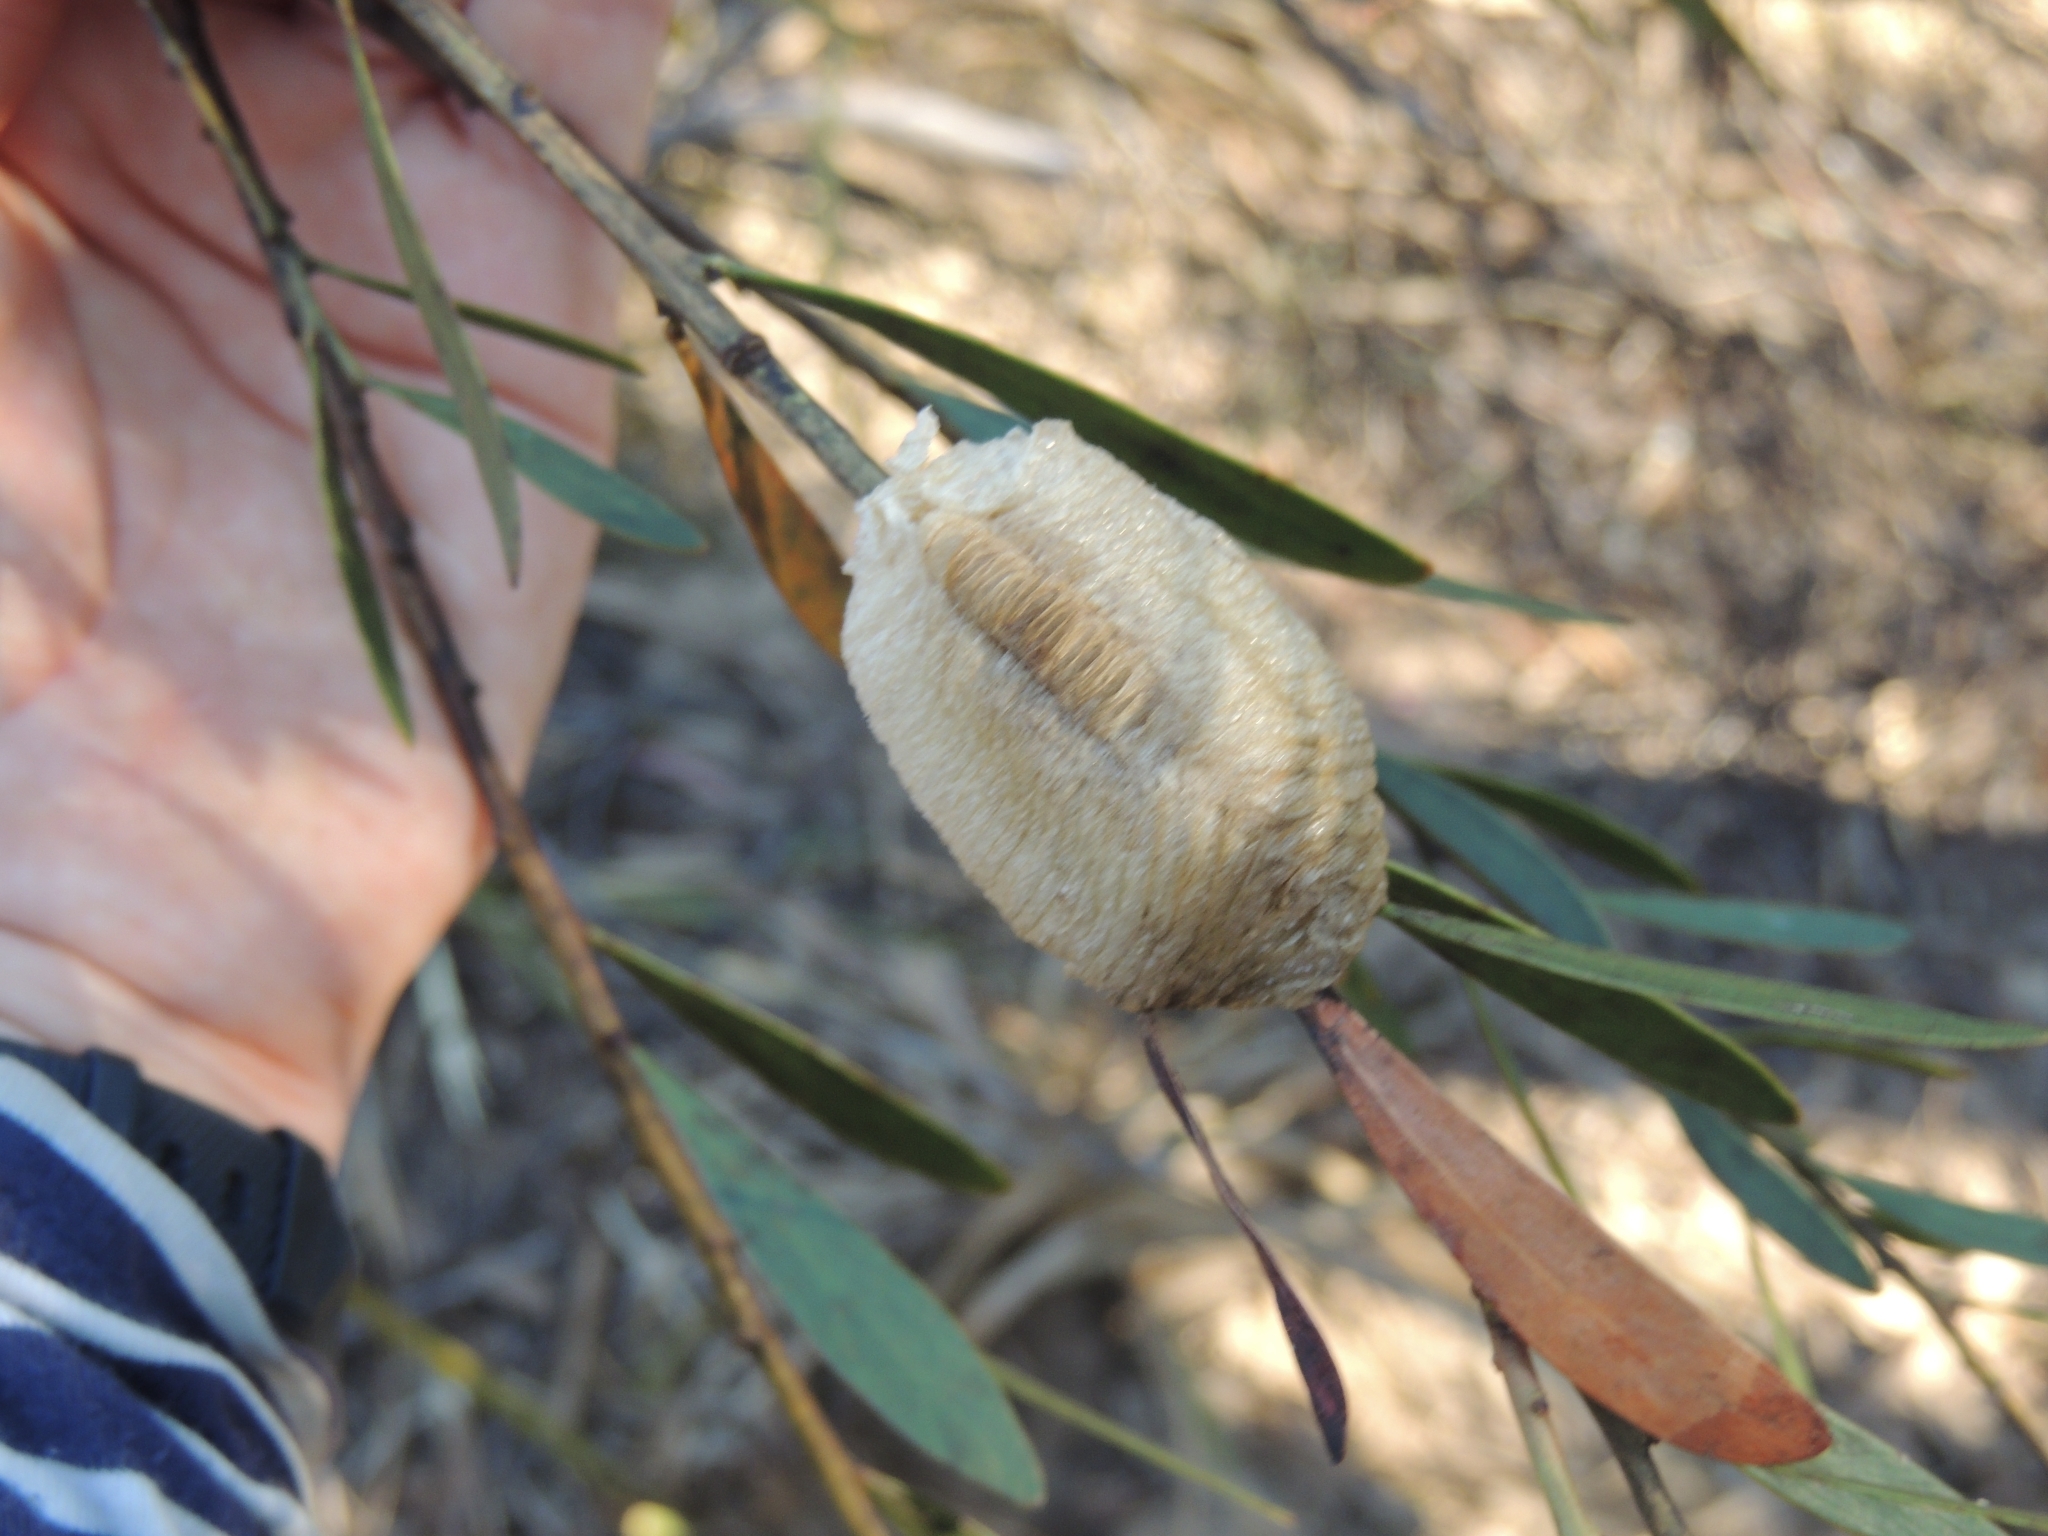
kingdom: Animalia
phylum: Arthropoda
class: Insecta
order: Mantodea
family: Mantidae
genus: Archimantis
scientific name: Archimantis latistyla
